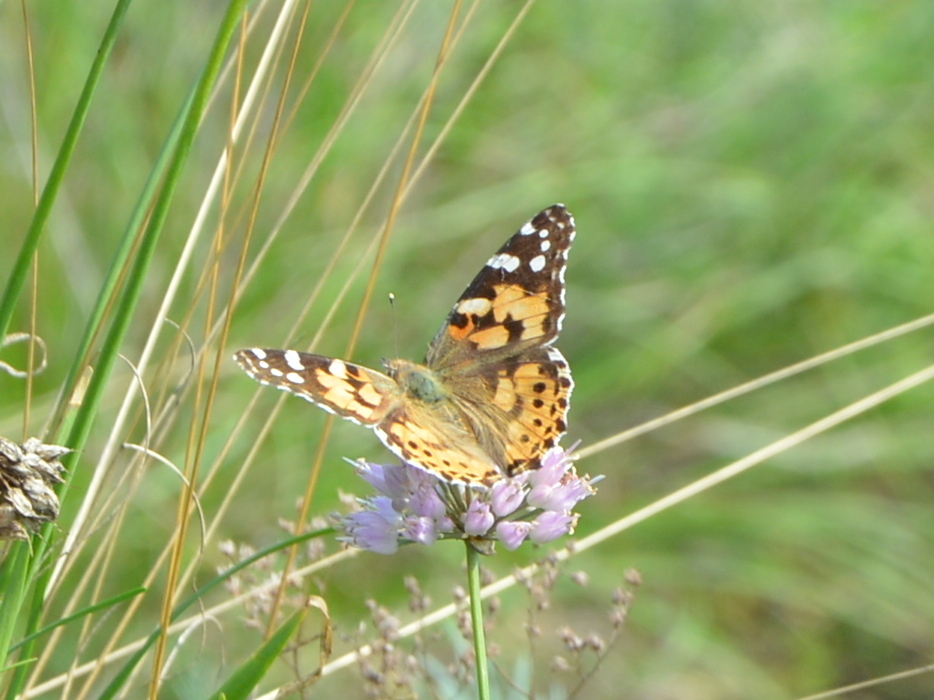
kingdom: Animalia
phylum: Arthropoda
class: Insecta
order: Lepidoptera
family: Nymphalidae
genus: Vanessa
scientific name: Vanessa cardui
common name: Painted lady
